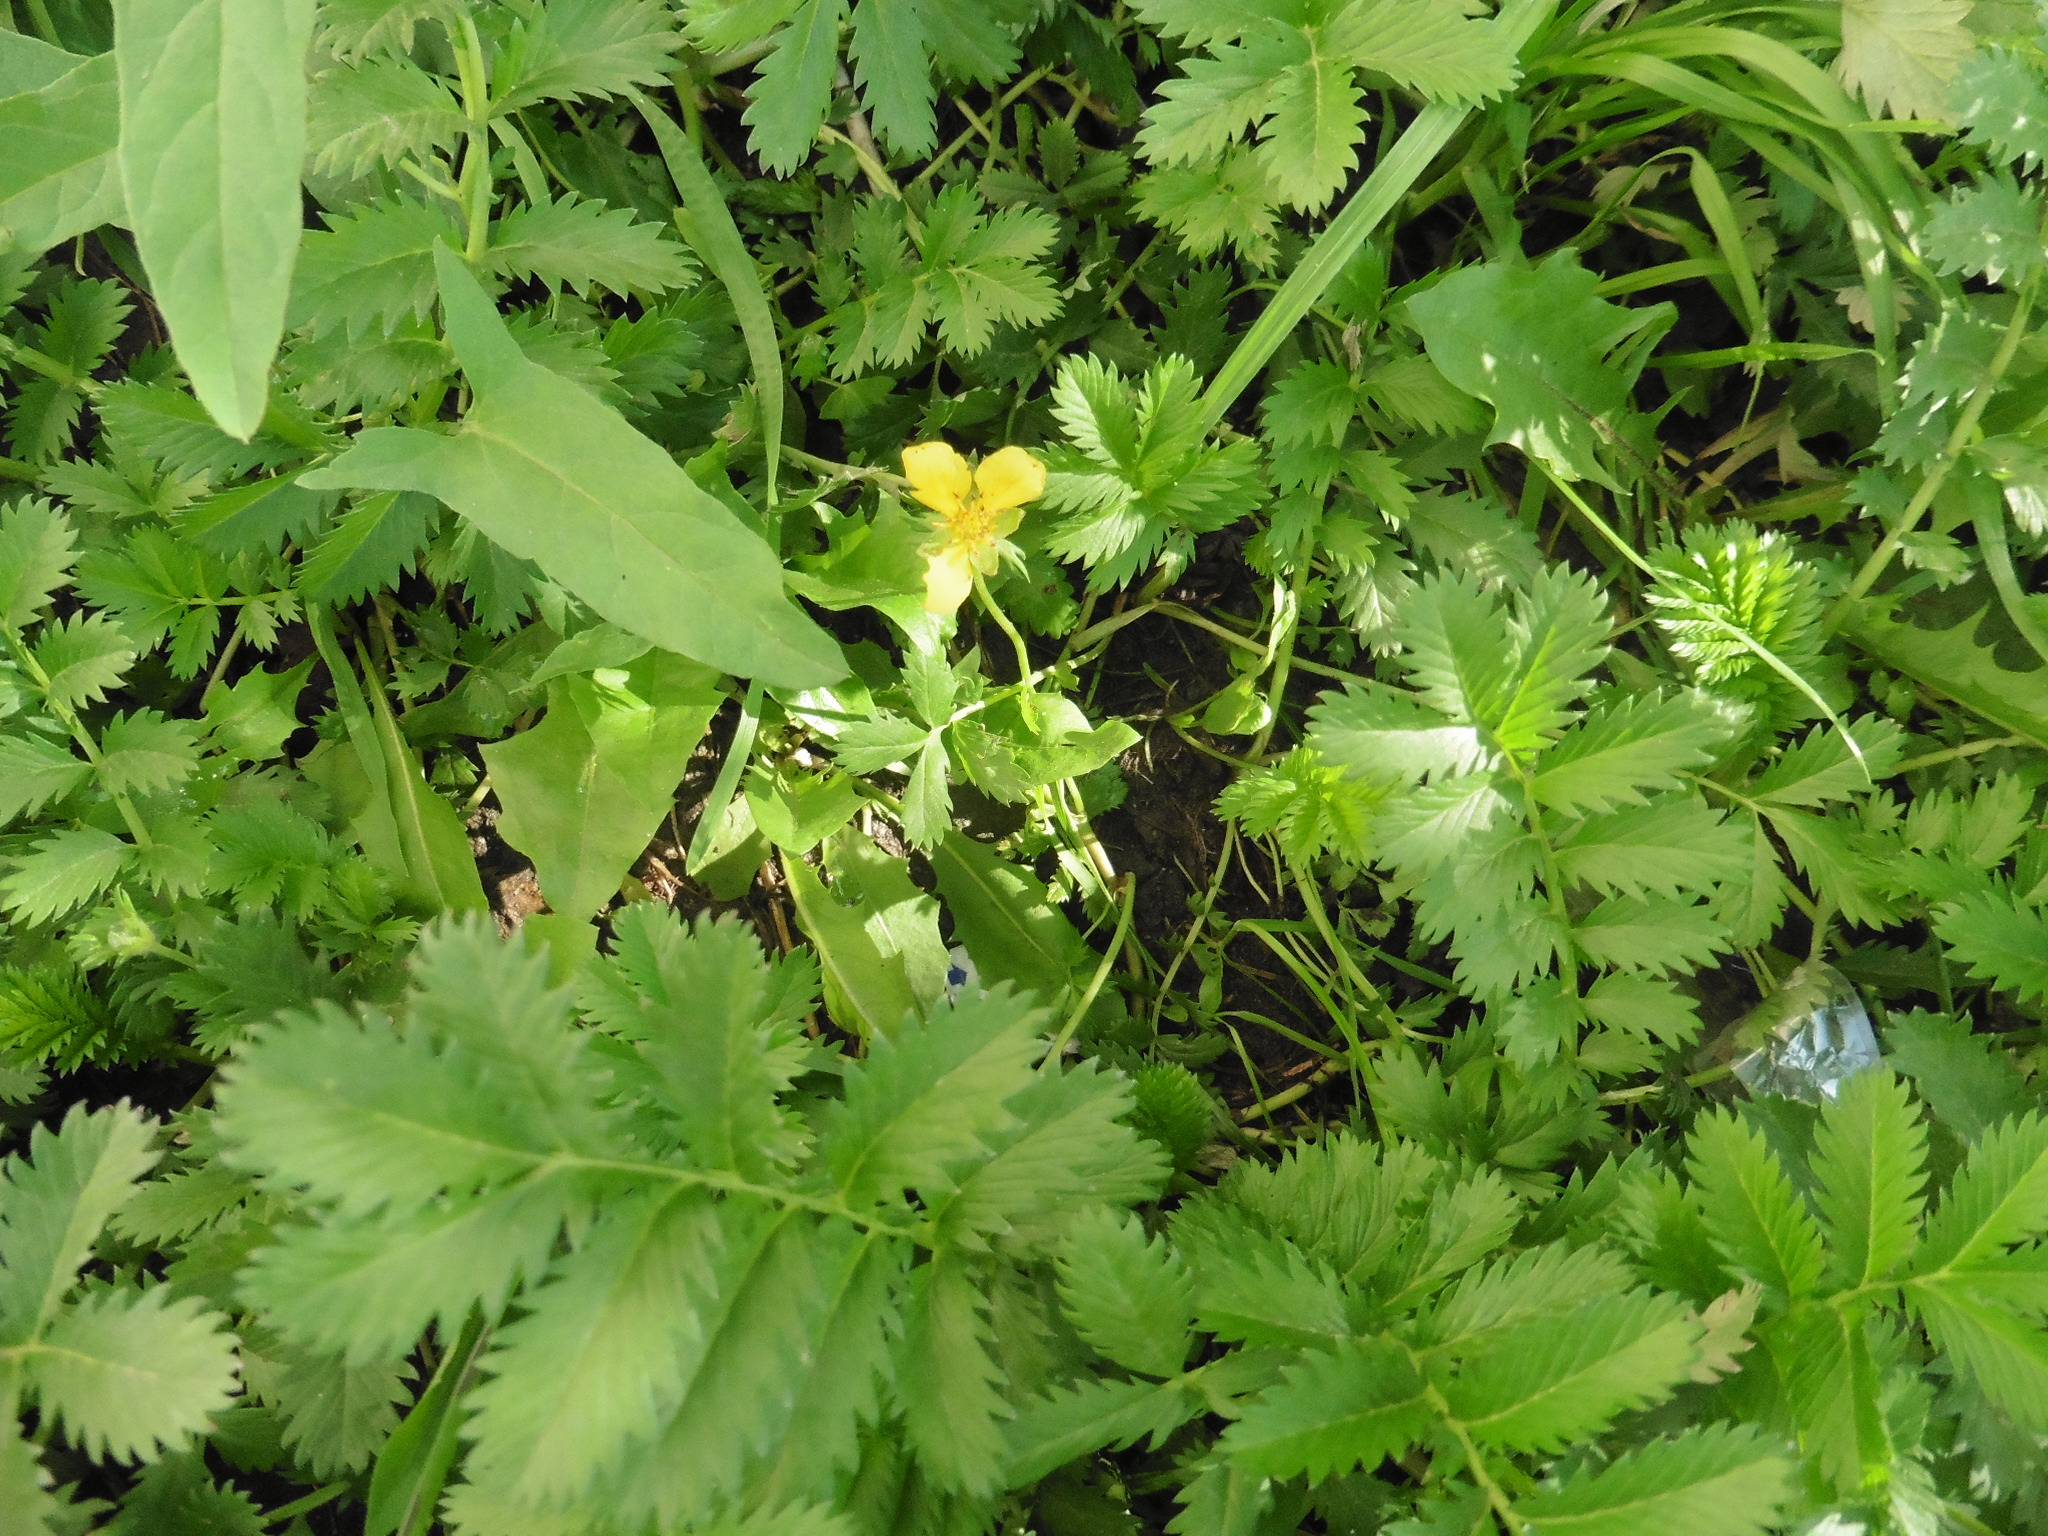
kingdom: Plantae
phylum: Tracheophyta
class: Magnoliopsida
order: Rosales
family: Rosaceae
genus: Argentina
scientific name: Argentina anserina
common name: Common silverweed
